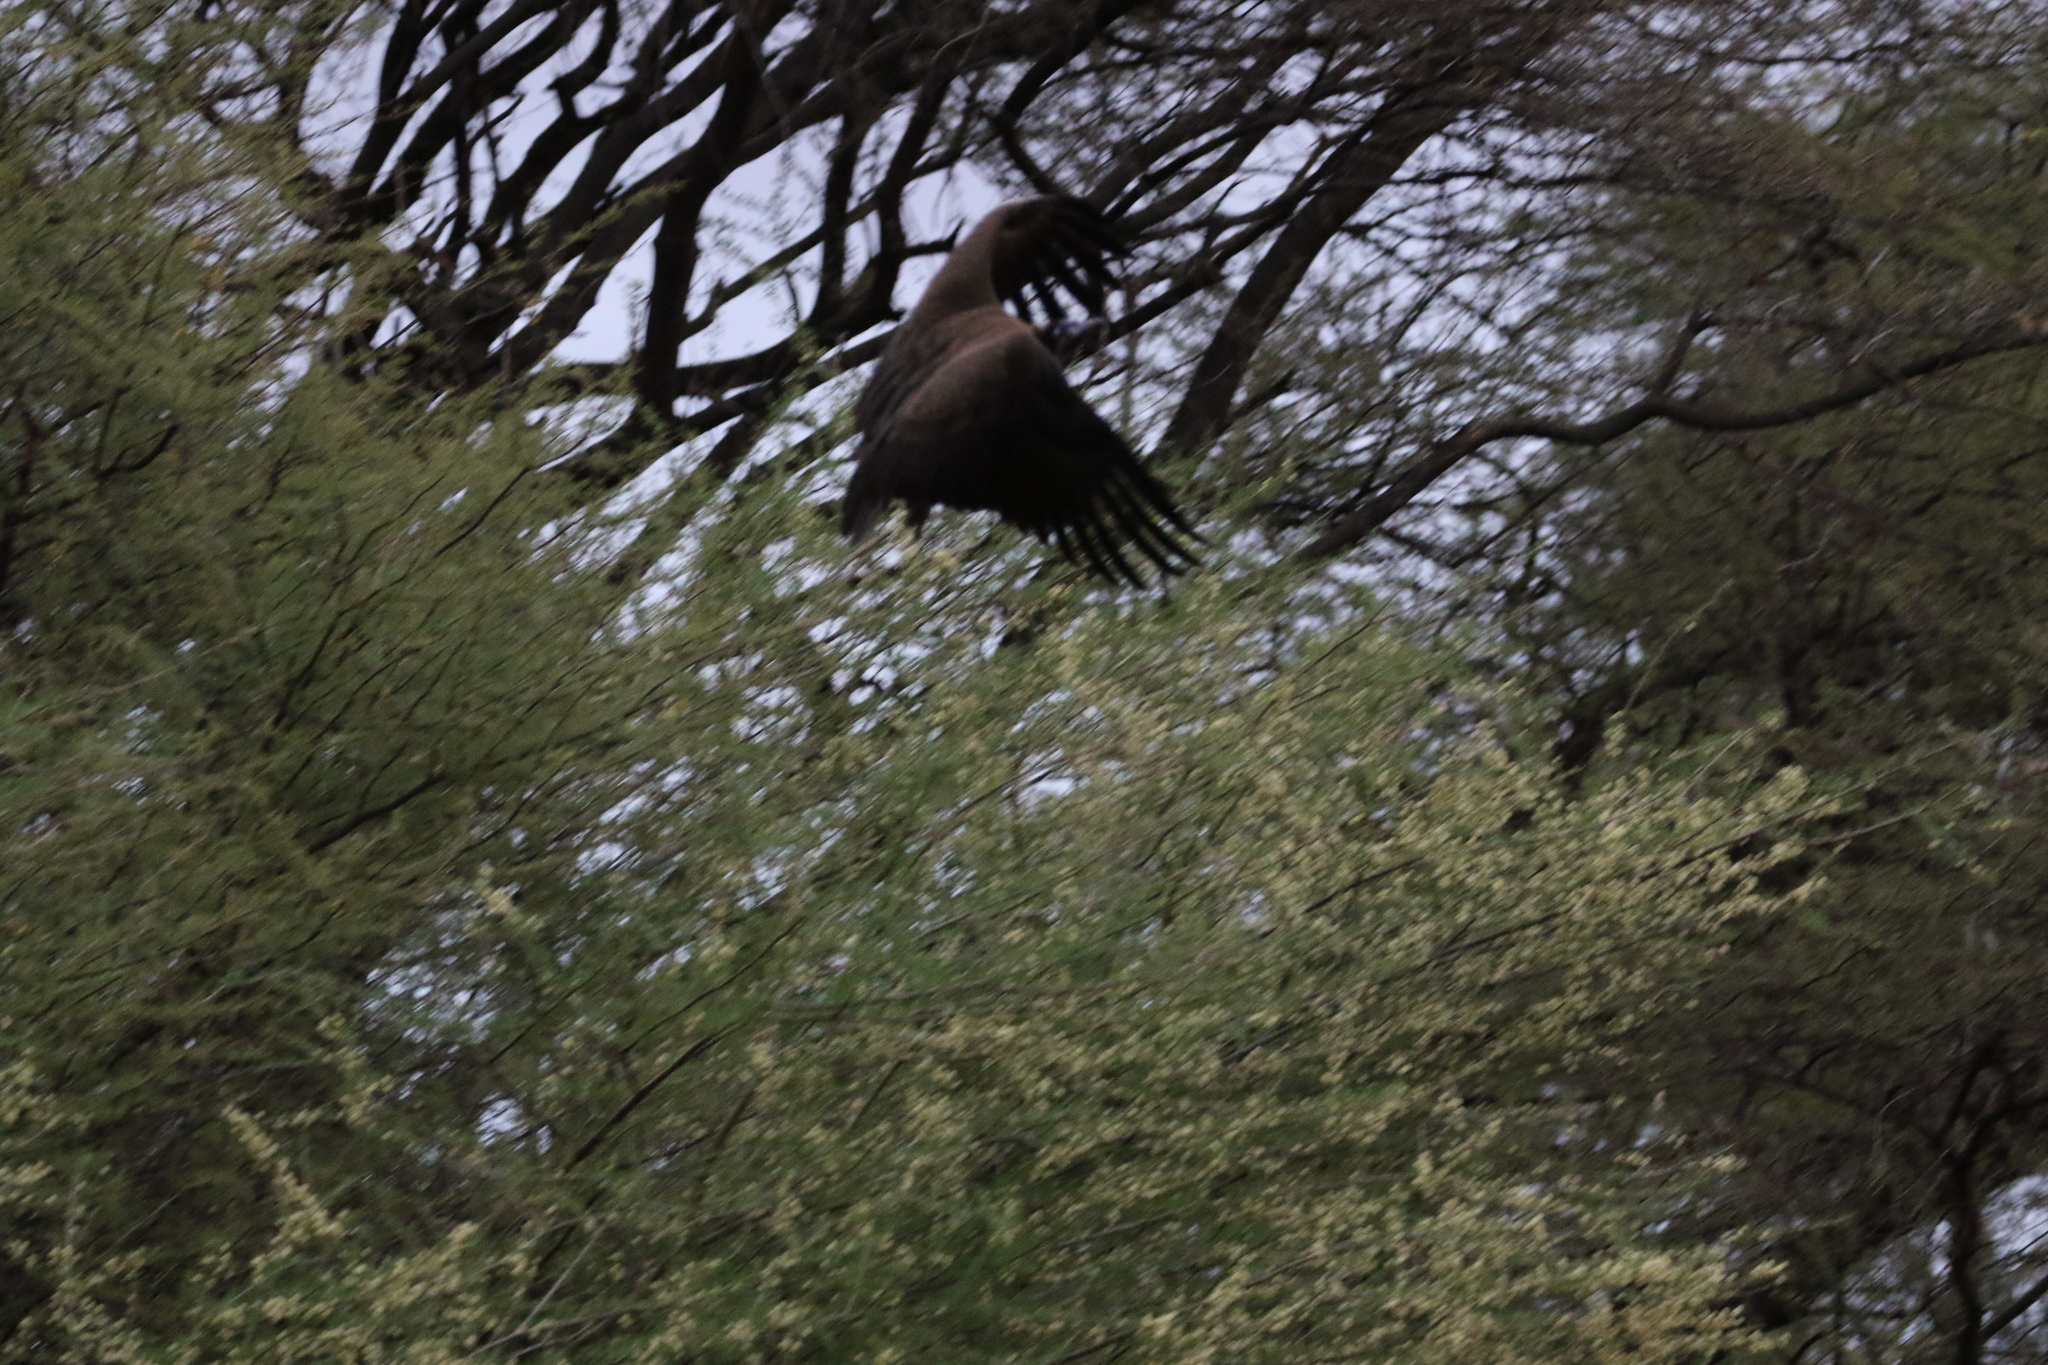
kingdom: Animalia
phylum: Chordata
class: Aves
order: Accipitriformes
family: Accipitridae
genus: Necrosyrtes
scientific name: Necrosyrtes monachus
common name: Hooded vulture
